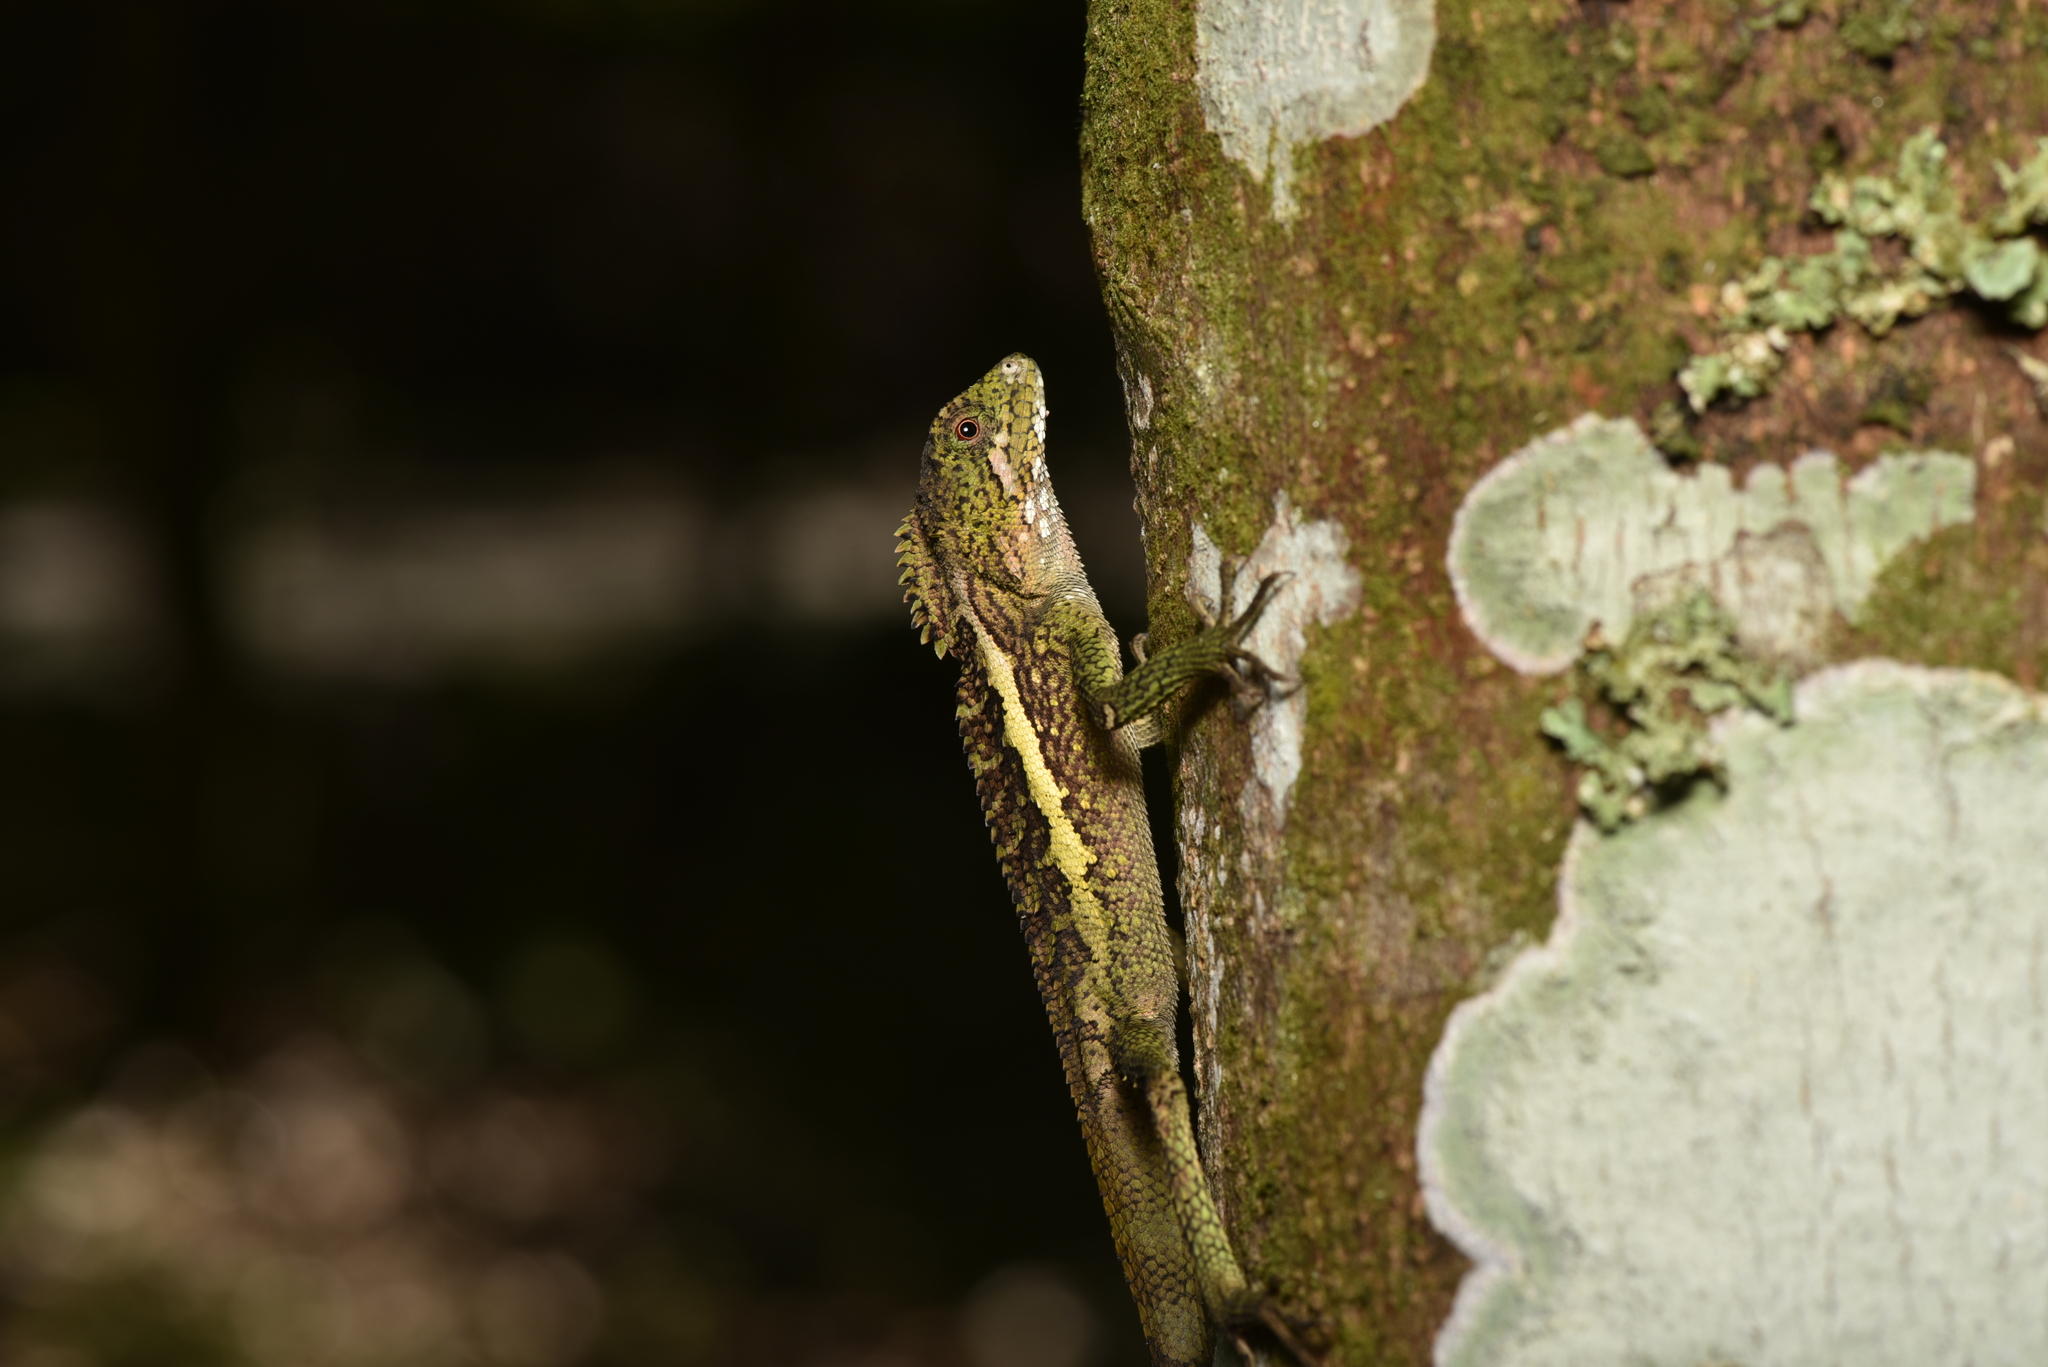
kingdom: Animalia
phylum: Chordata
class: Squamata
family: Agamidae
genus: Diploderma
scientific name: Diploderma swinhonis
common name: Taiwan japalure
